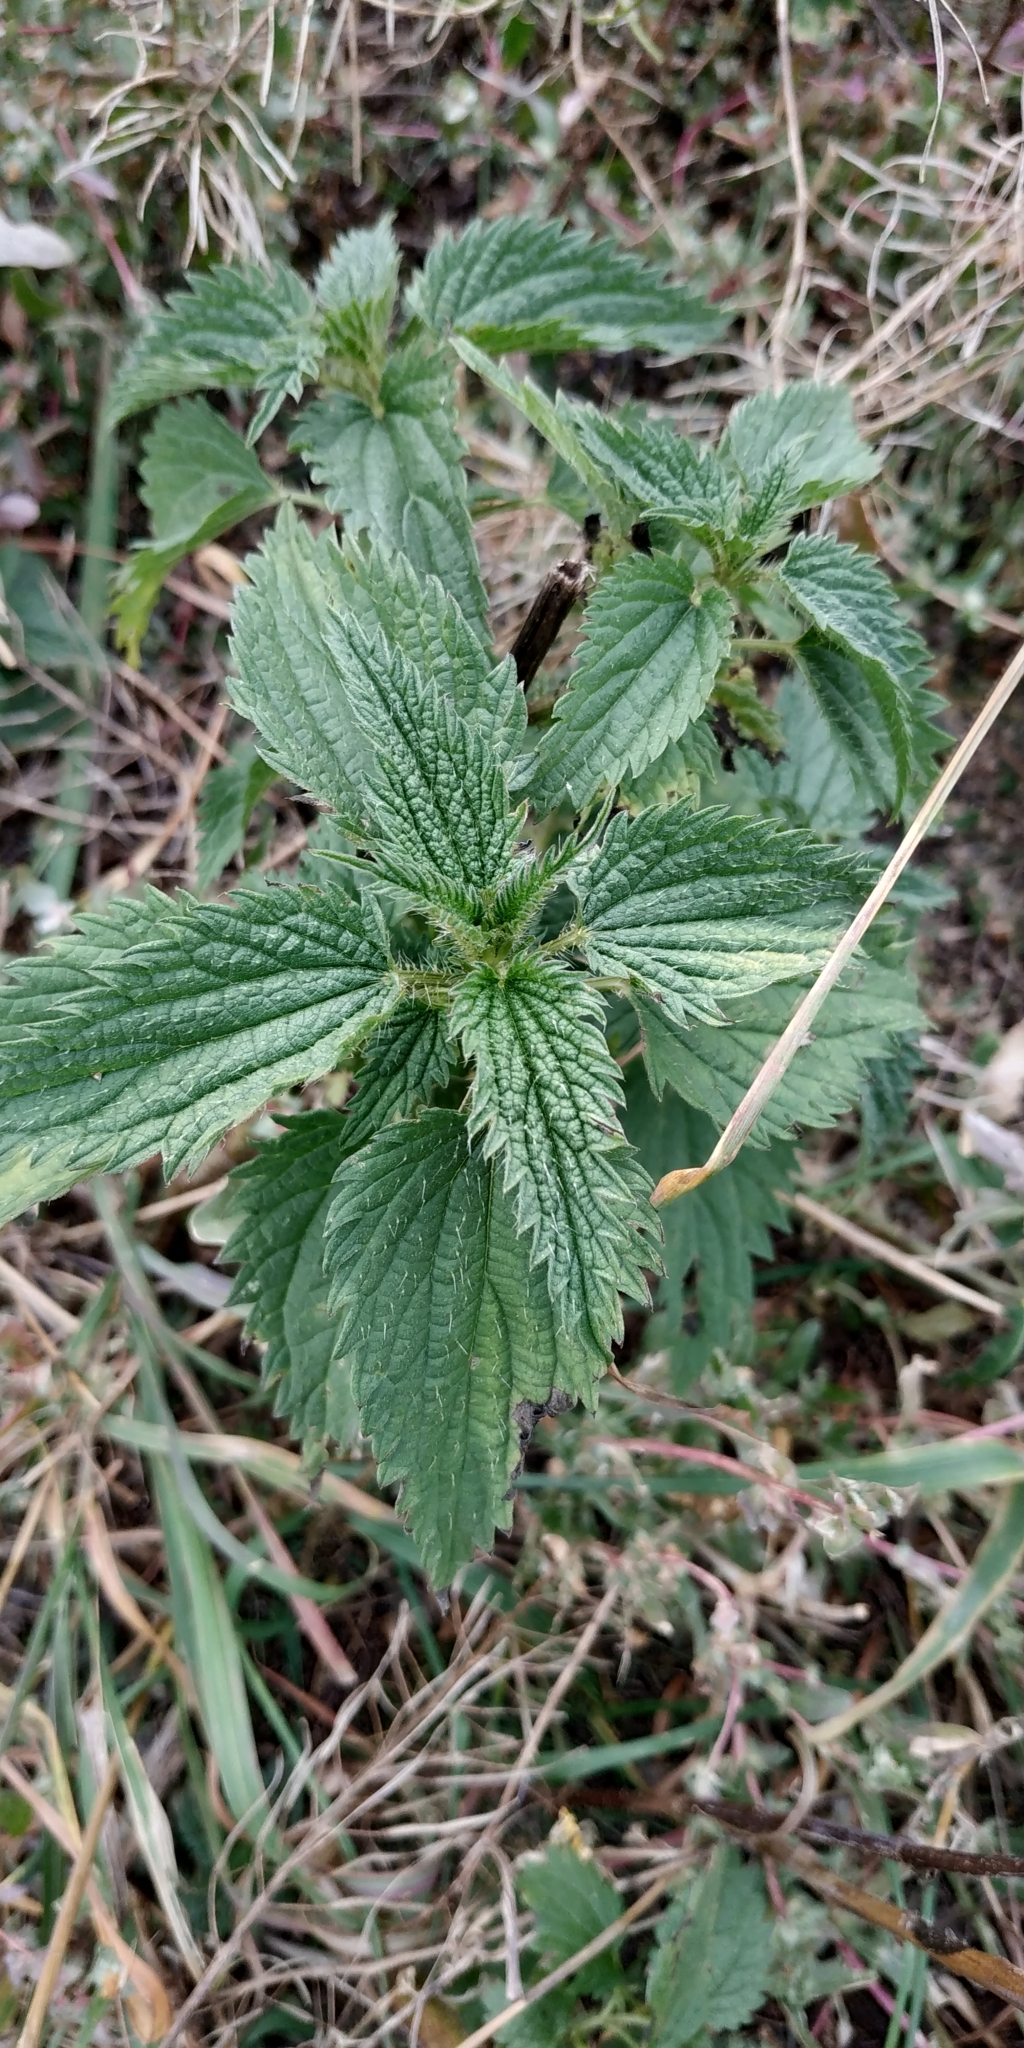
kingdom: Plantae
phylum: Tracheophyta
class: Magnoliopsida
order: Rosales
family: Urticaceae
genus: Urtica
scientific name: Urtica dioica
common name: Common nettle
